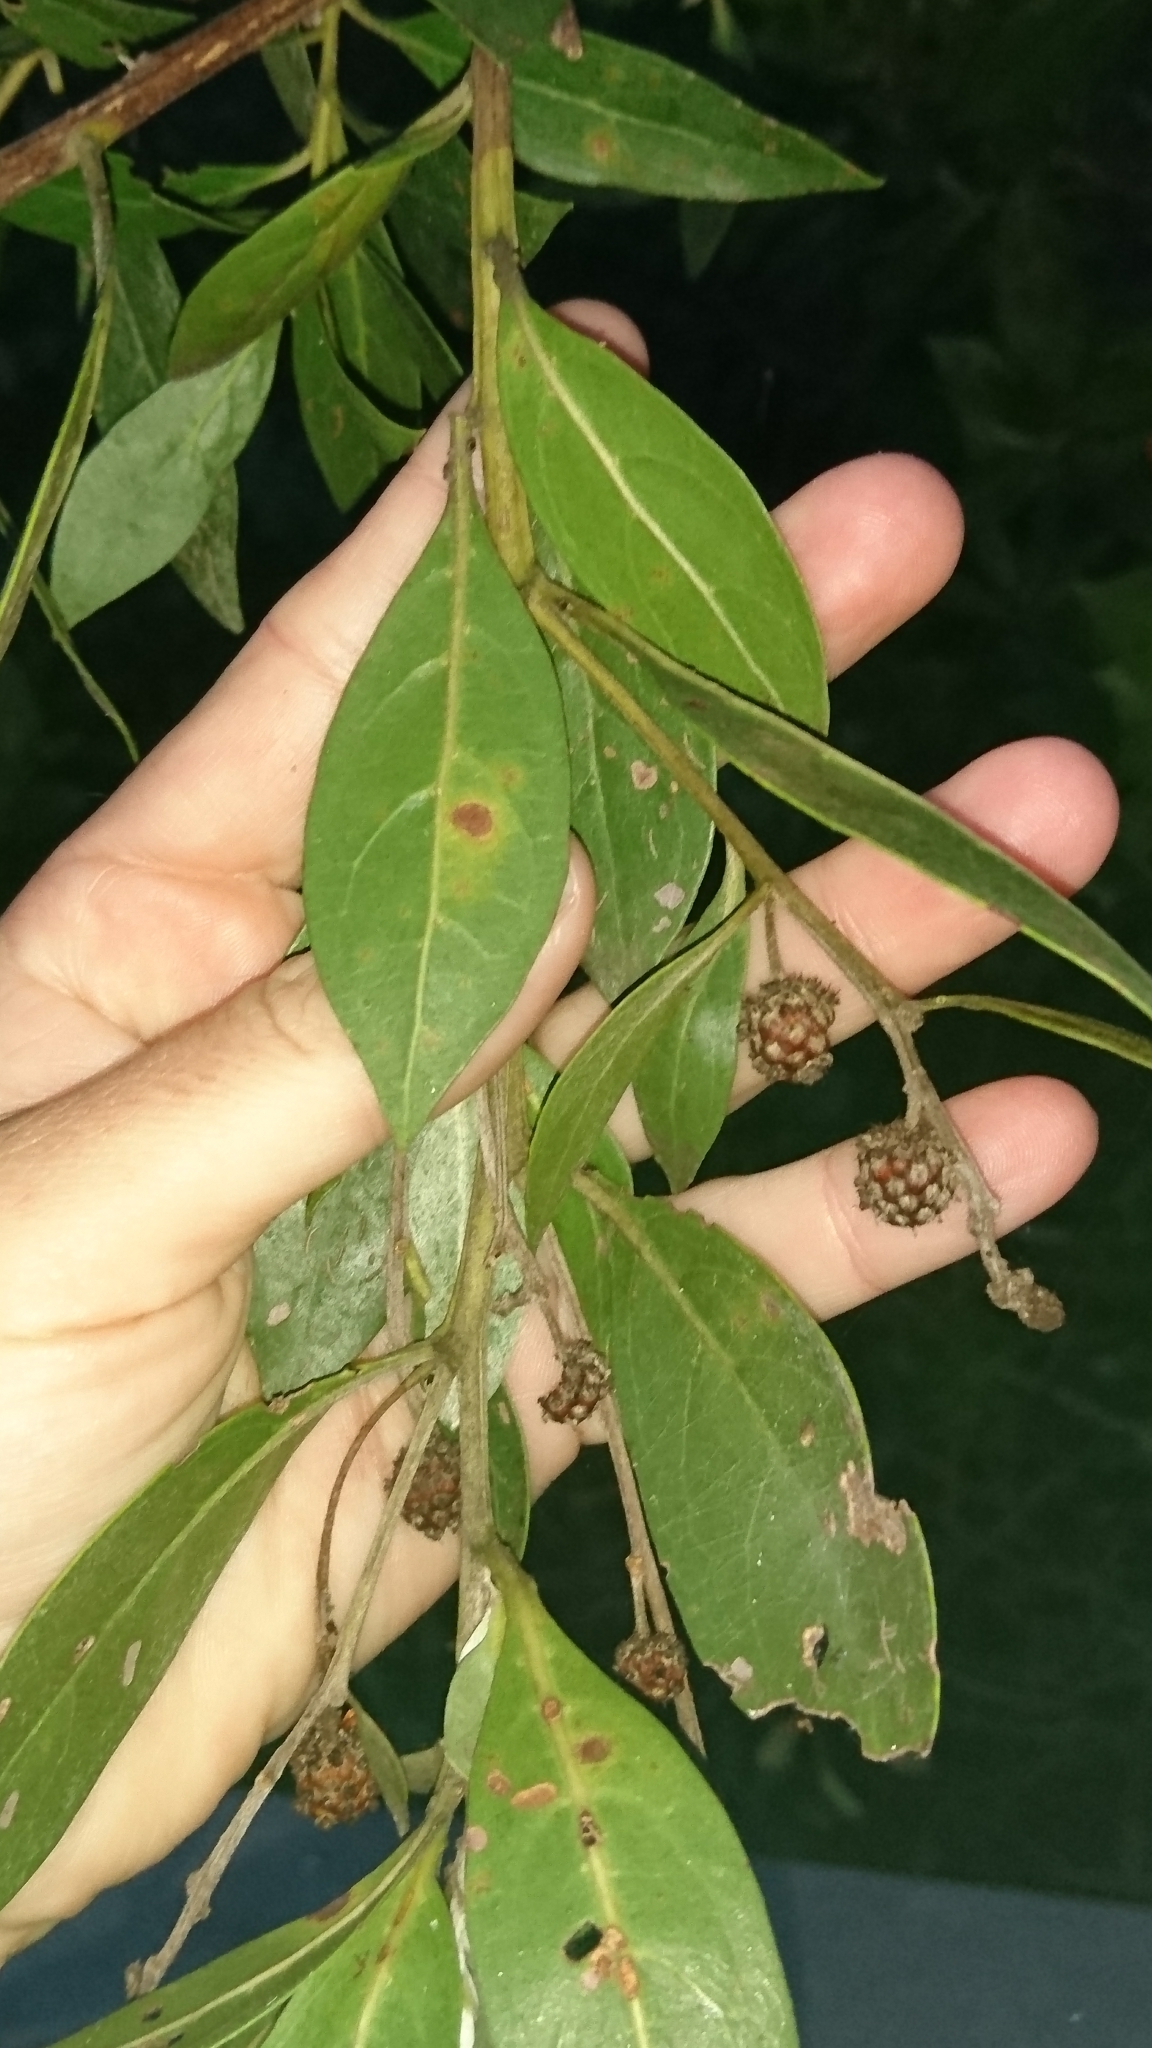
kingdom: Plantae
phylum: Tracheophyta
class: Magnoliopsida
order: Myrtales
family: Combretaceae
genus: Conocarpus
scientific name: Conocarpus erectus
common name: Button mangrove
